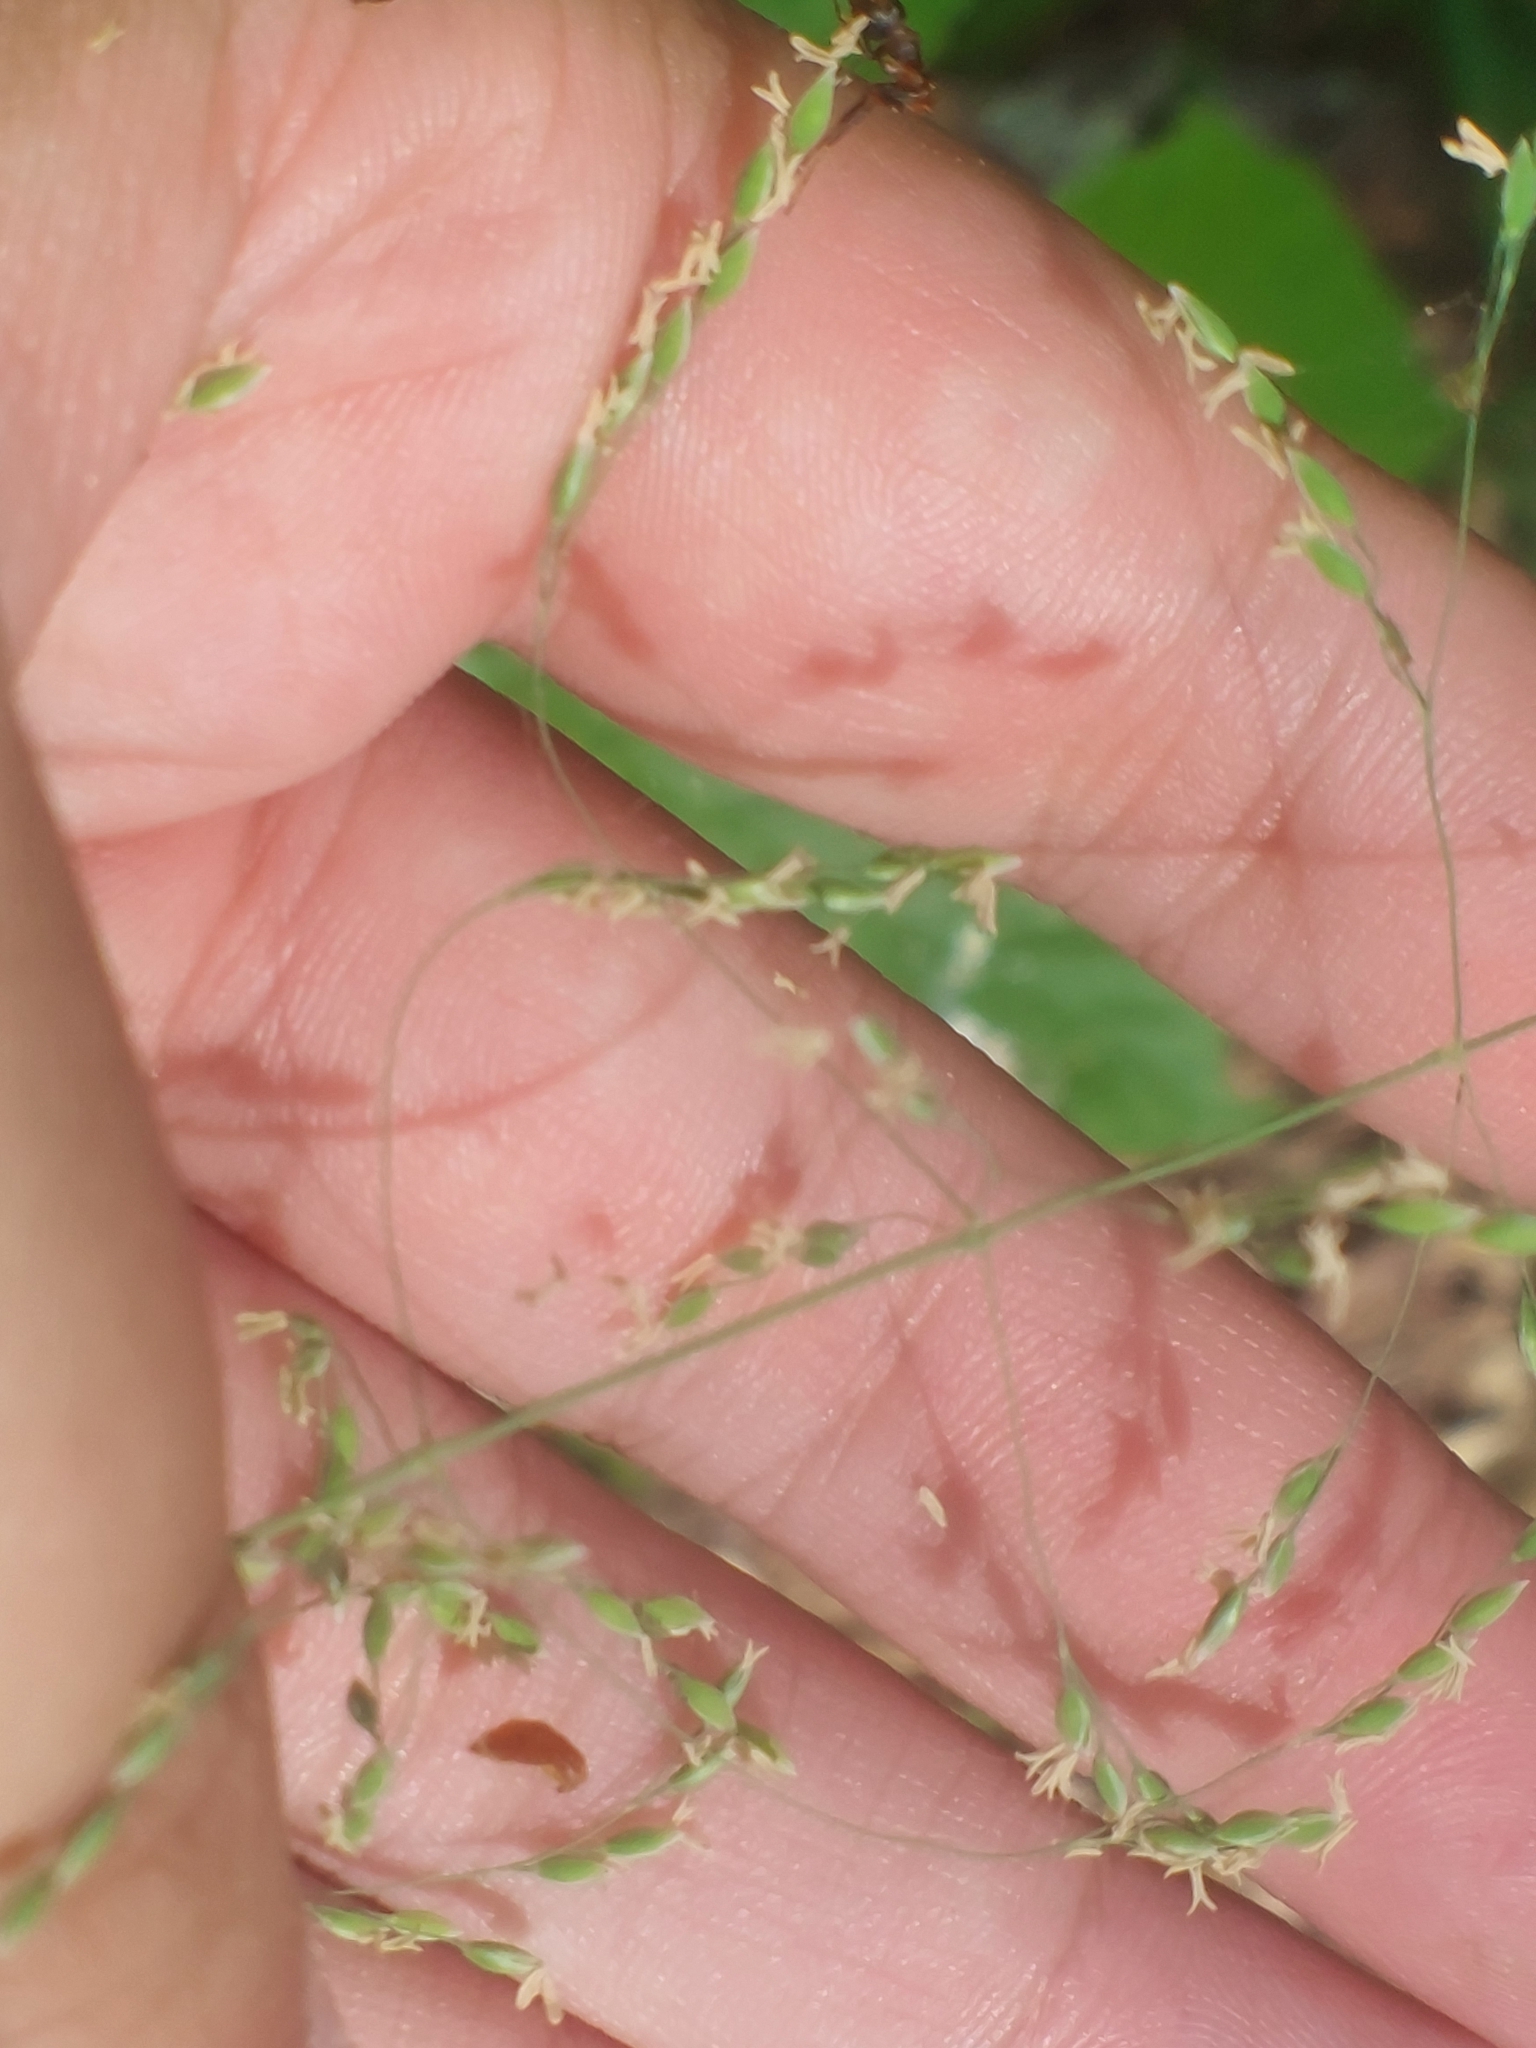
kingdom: Plantae
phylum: Tracheophyta
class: Liliopsida
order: Poales
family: Poaceae
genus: Milium
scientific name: Milium effusum
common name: Wood millet
